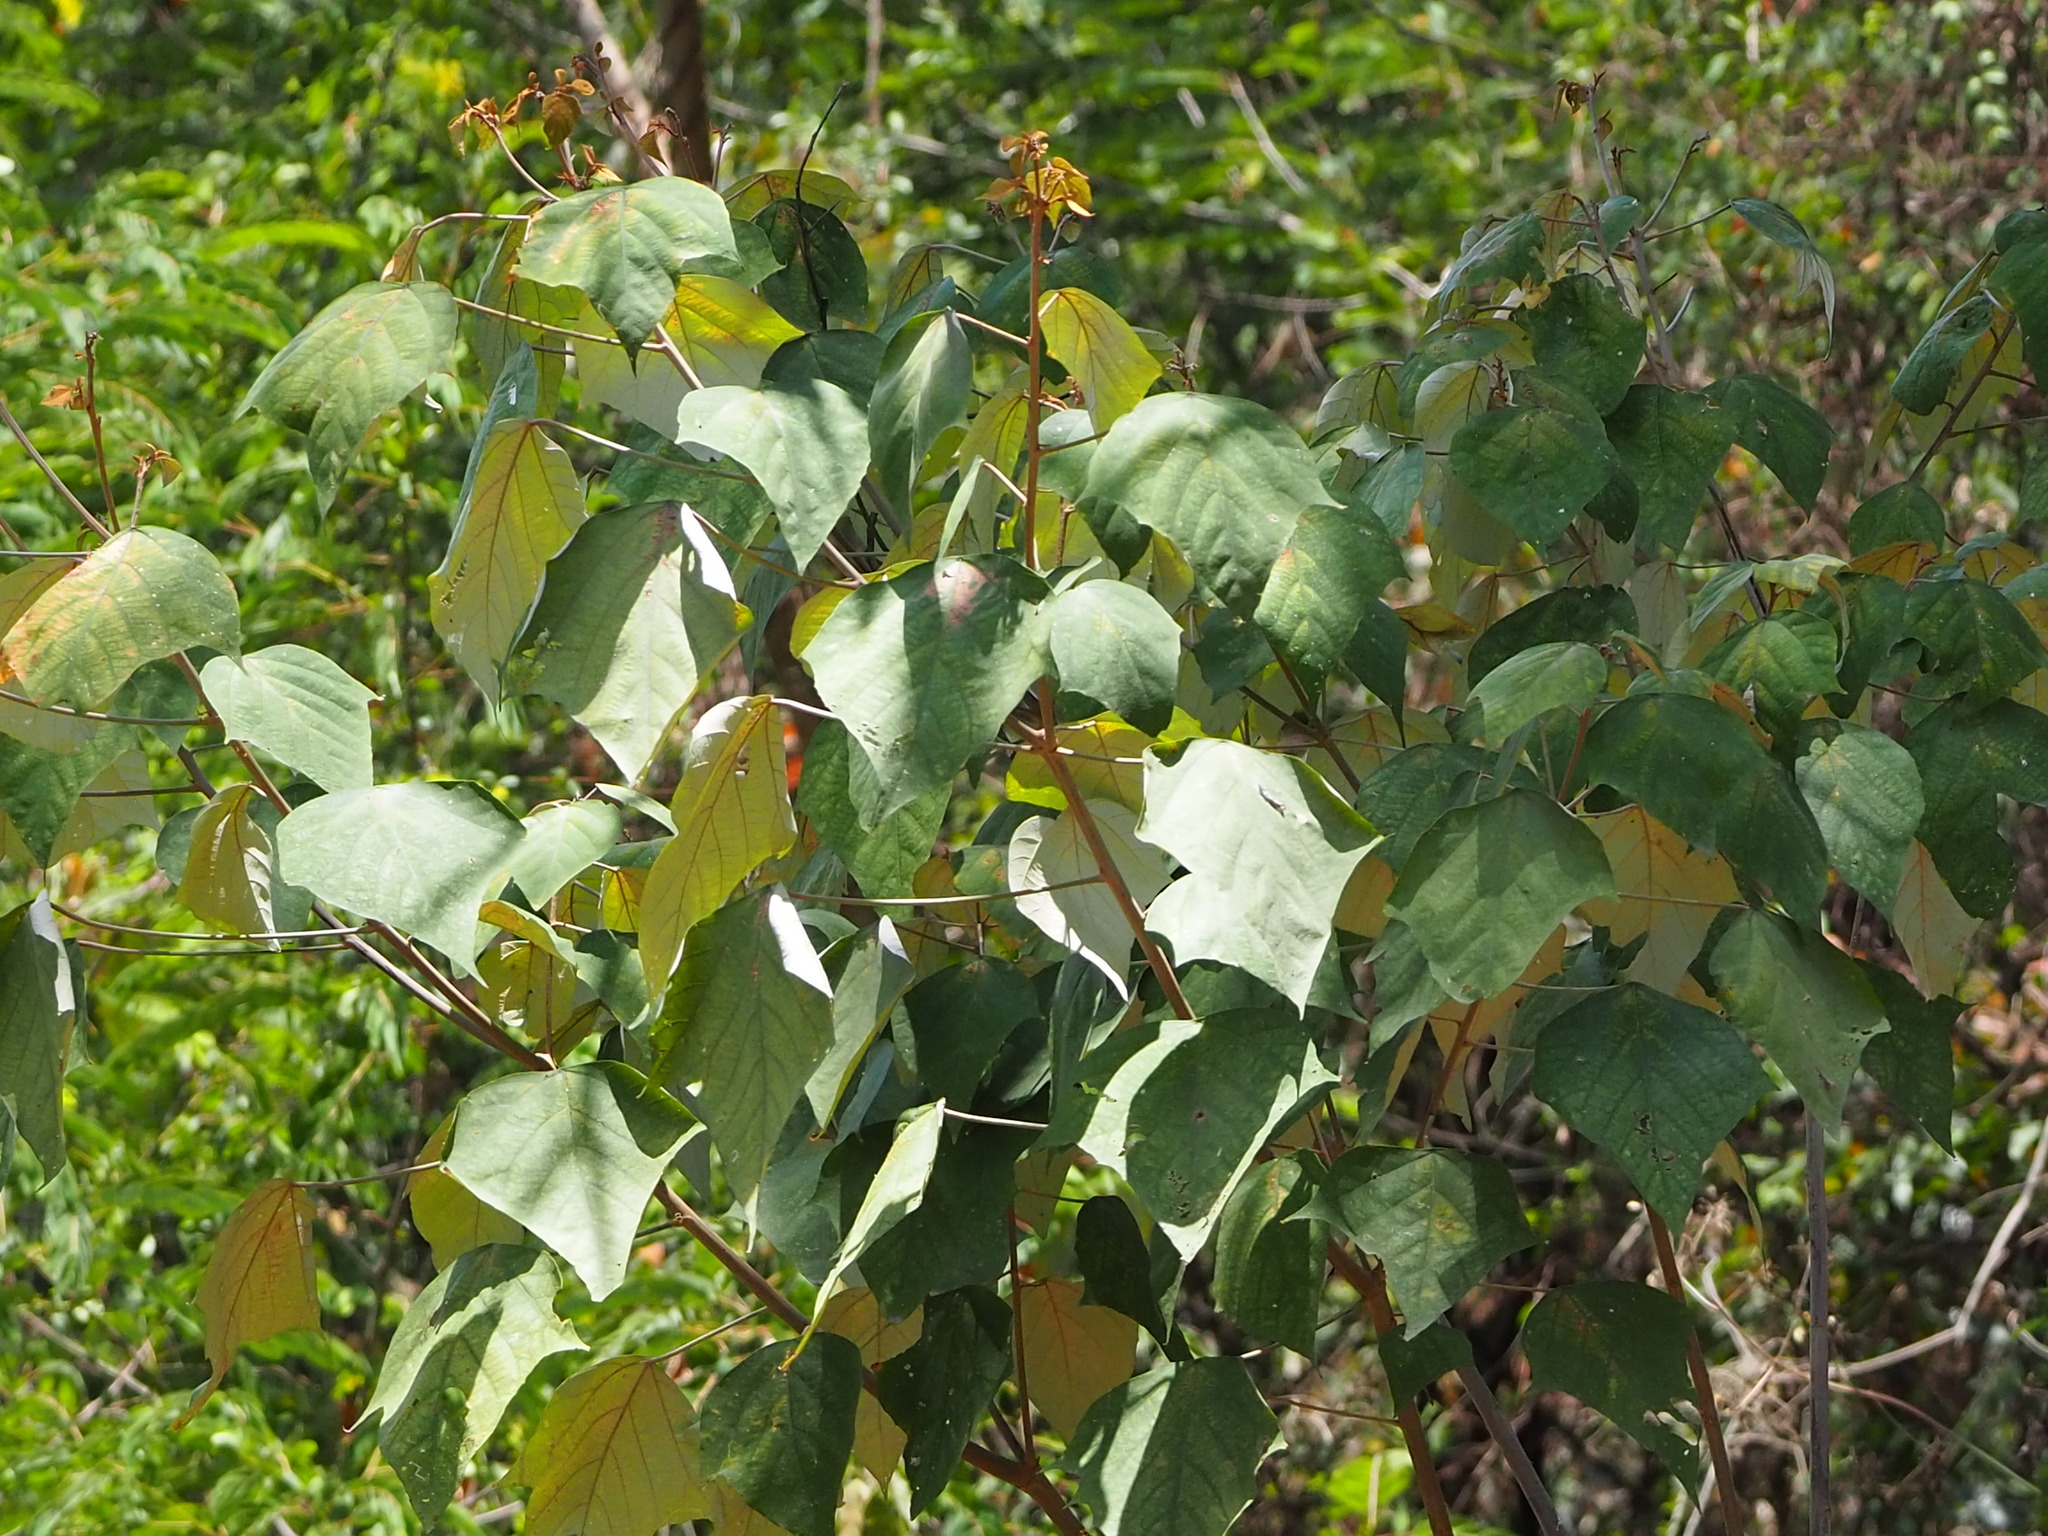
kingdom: Plantae
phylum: Tracheophyta
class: Magnoliopsida
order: Malpighiales
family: Euphorbiaceae
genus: Mallotus
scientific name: Mallotus paniculatus
